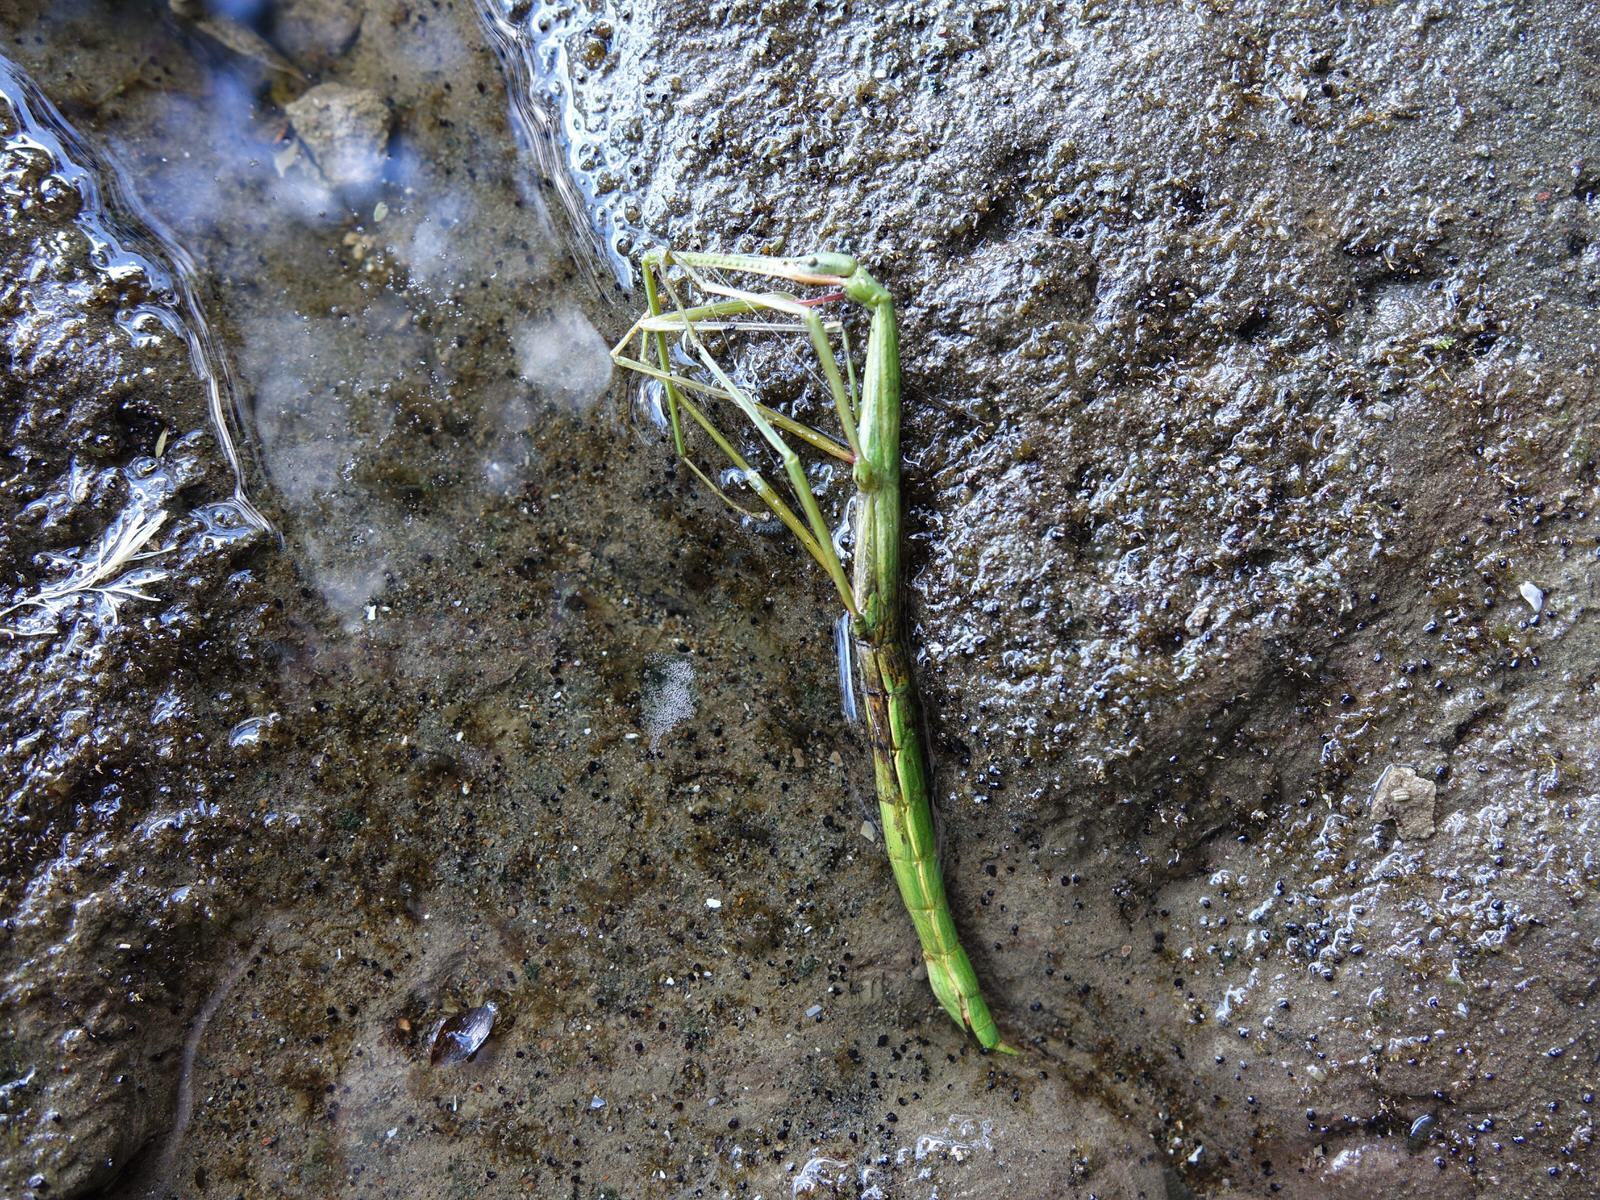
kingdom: Animalia
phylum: Arthropoda
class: Insecta
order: Phasmida
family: Phasmatidae
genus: Clitarchus
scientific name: Clitarchus hookeri
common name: Smooth stick insect
